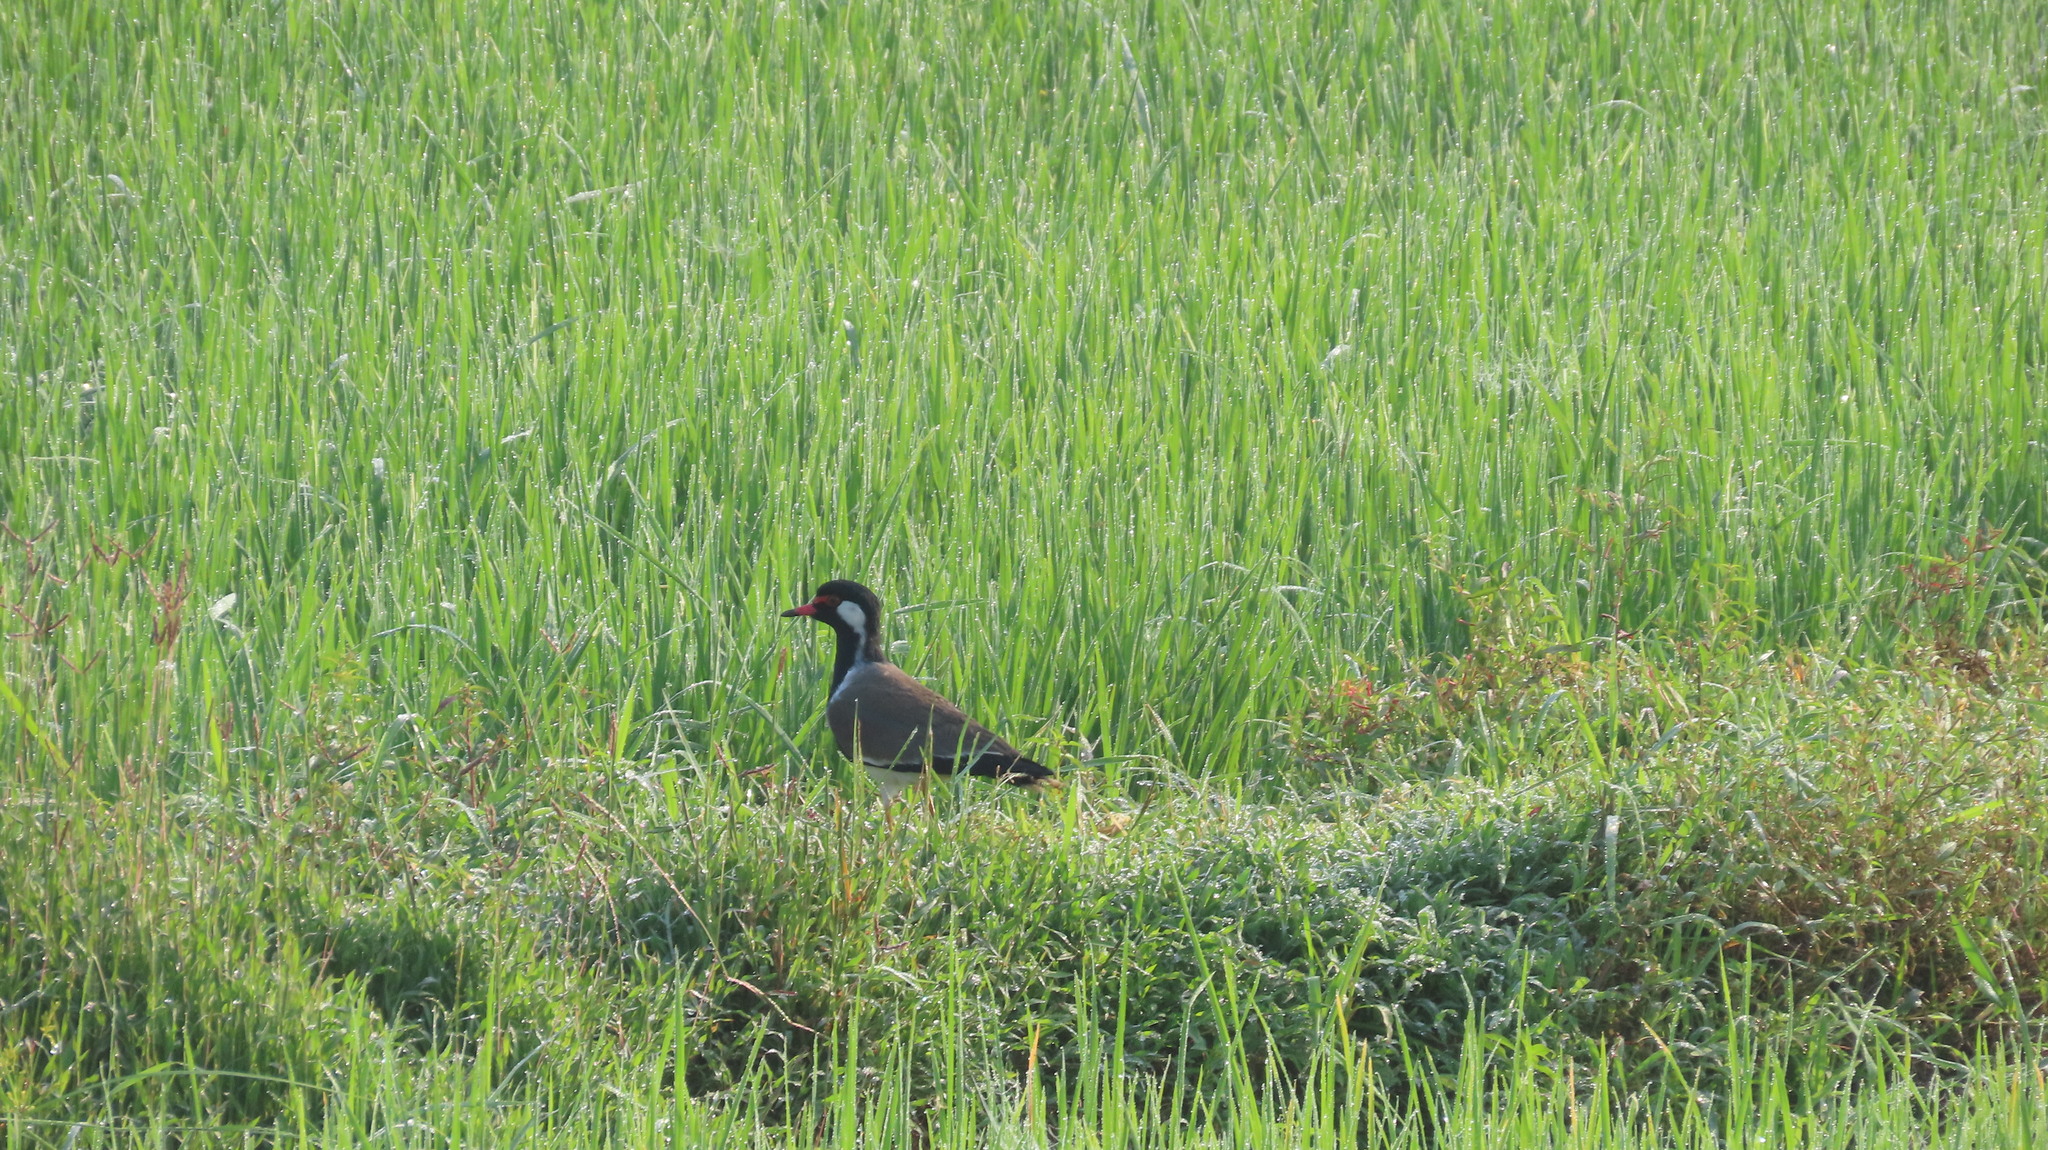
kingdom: Animalia
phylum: Chordata
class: Aves
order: Charadriiformes
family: Charadriidae
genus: Vanellus
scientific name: Vanellus indicus
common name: Red-wattled lapwing
